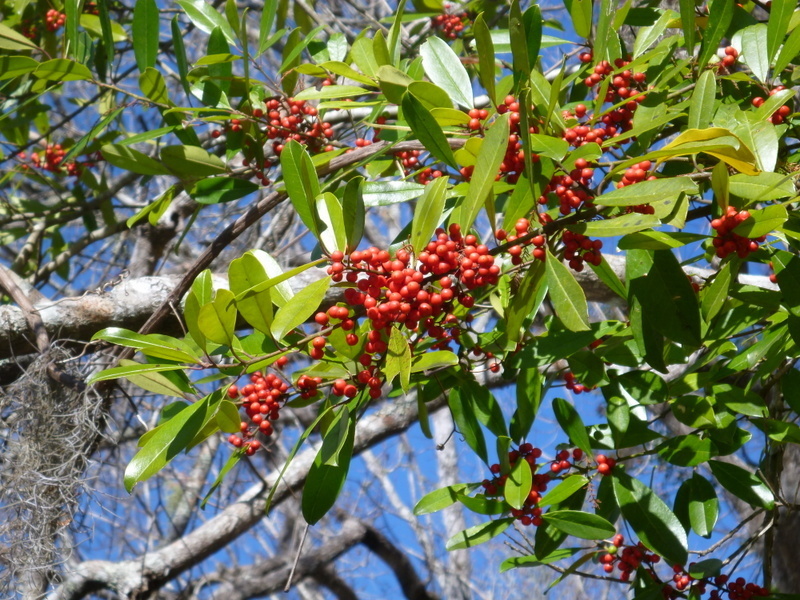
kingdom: Plantae
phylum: Tracheophyta
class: Magnoliopsida
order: Aquifoliales
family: Aquifoliaceae
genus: Ilex
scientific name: Ilex cassine
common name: Dahoon
